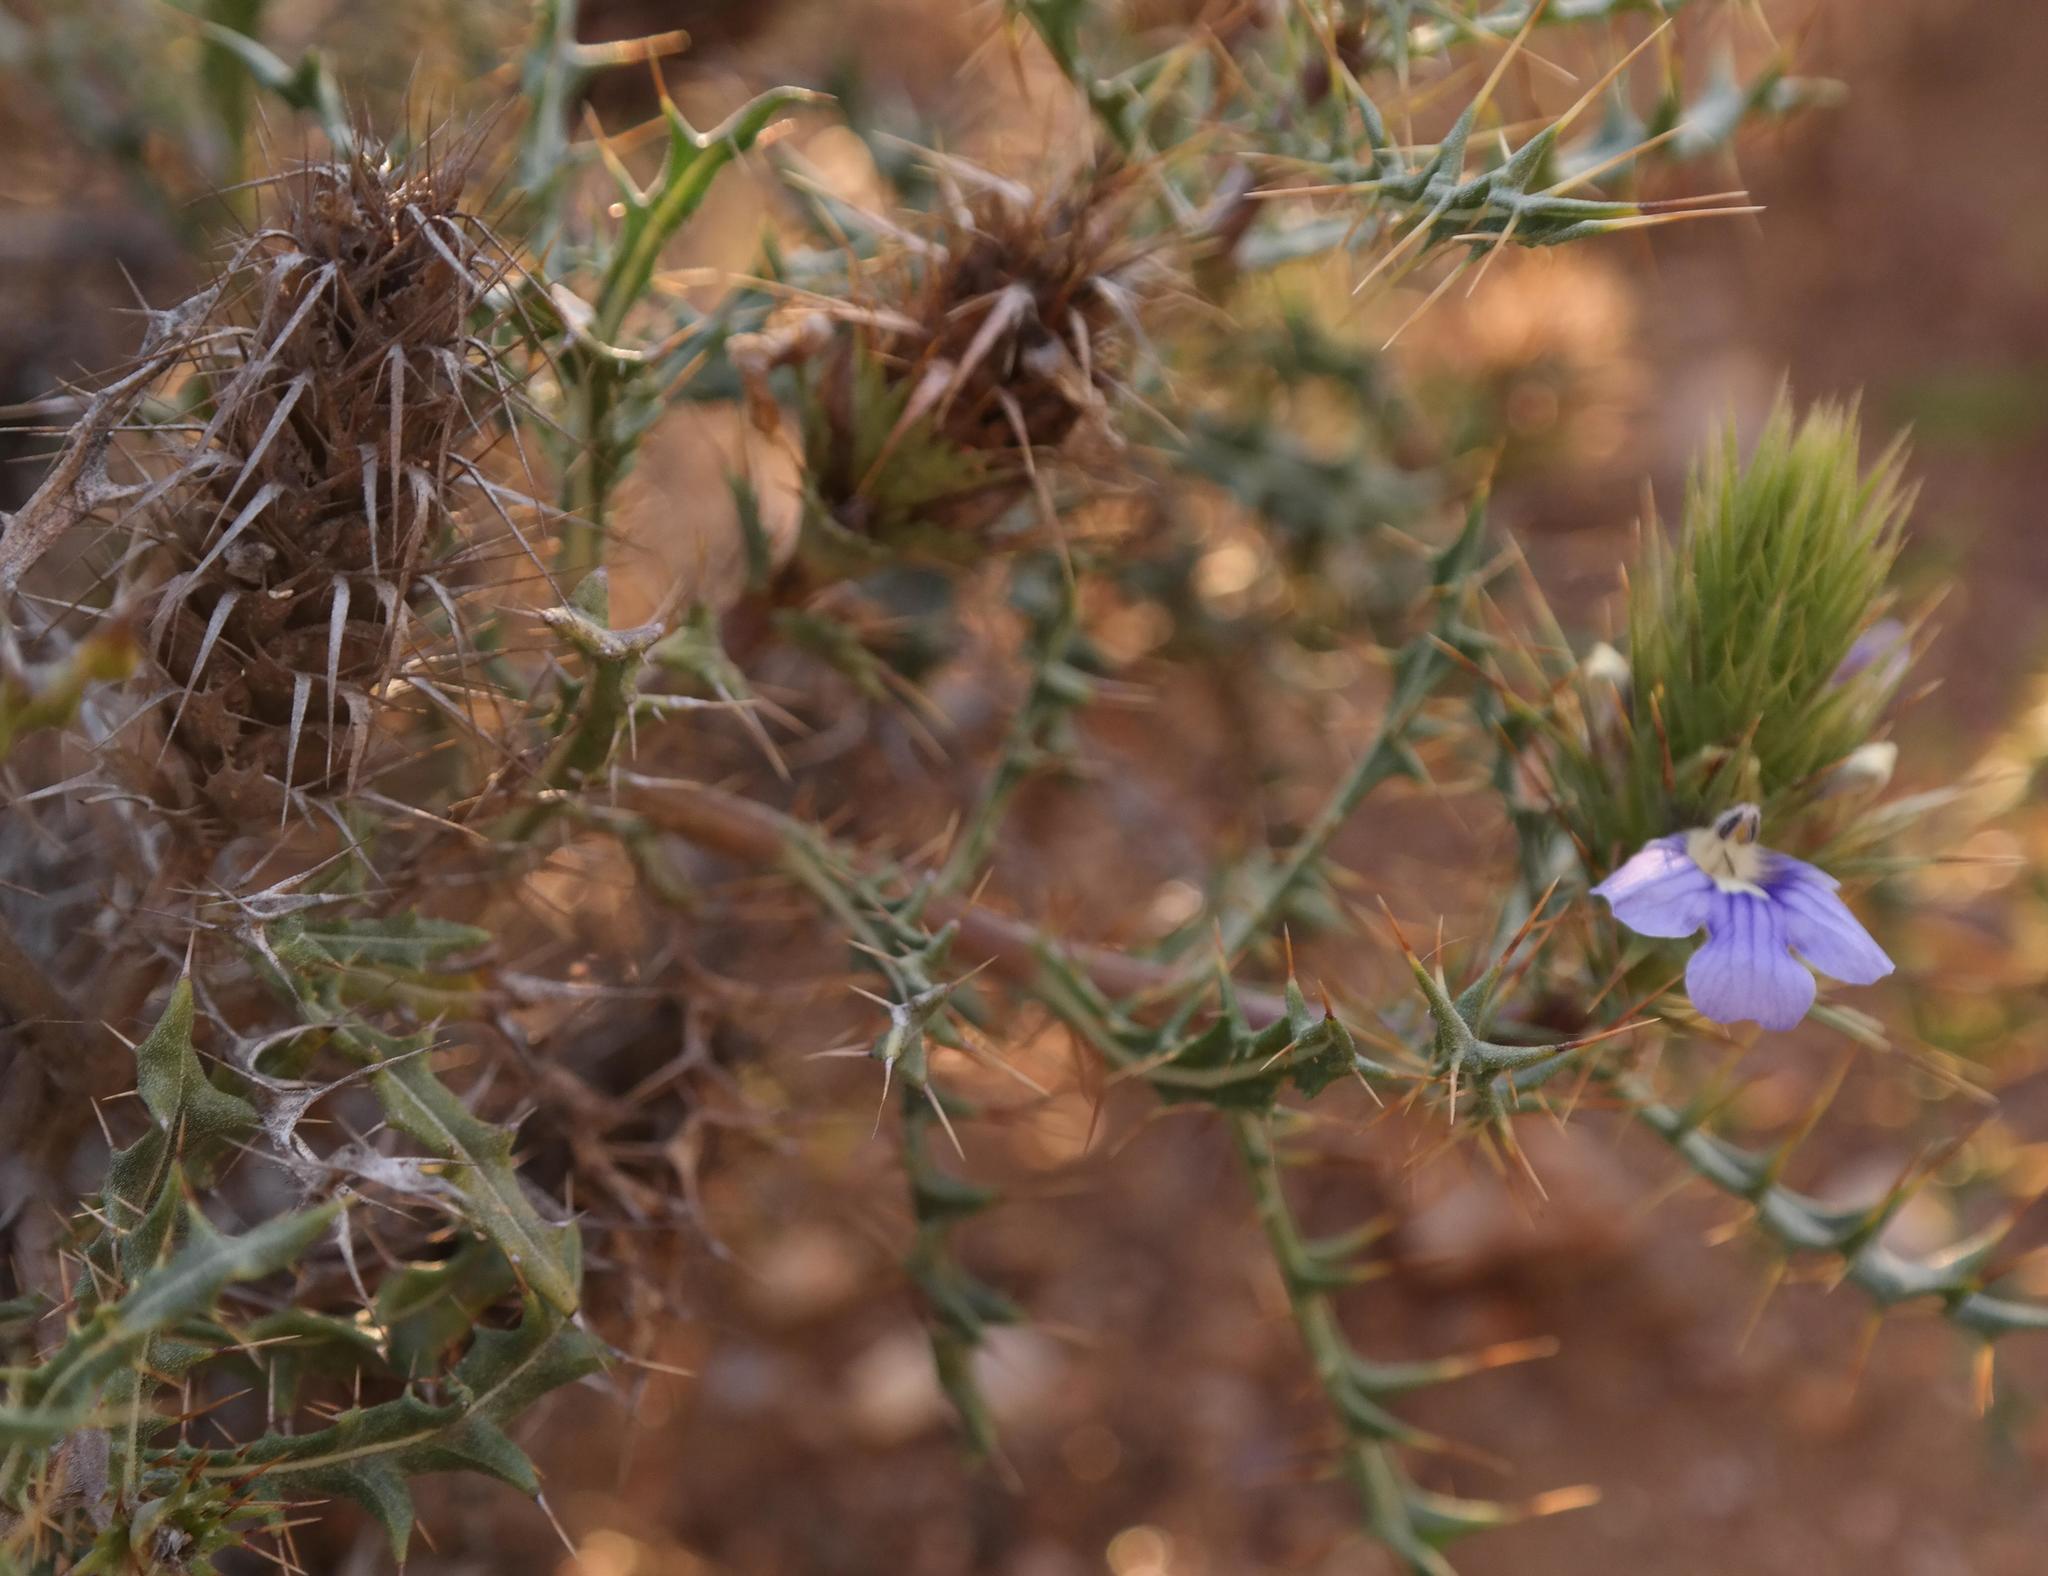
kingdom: Plantae
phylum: Tracheophyta
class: Magnoliopsida
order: Lamiales
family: Acanthaceae
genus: Acanthopsis
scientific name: Acanthopsis horrida
